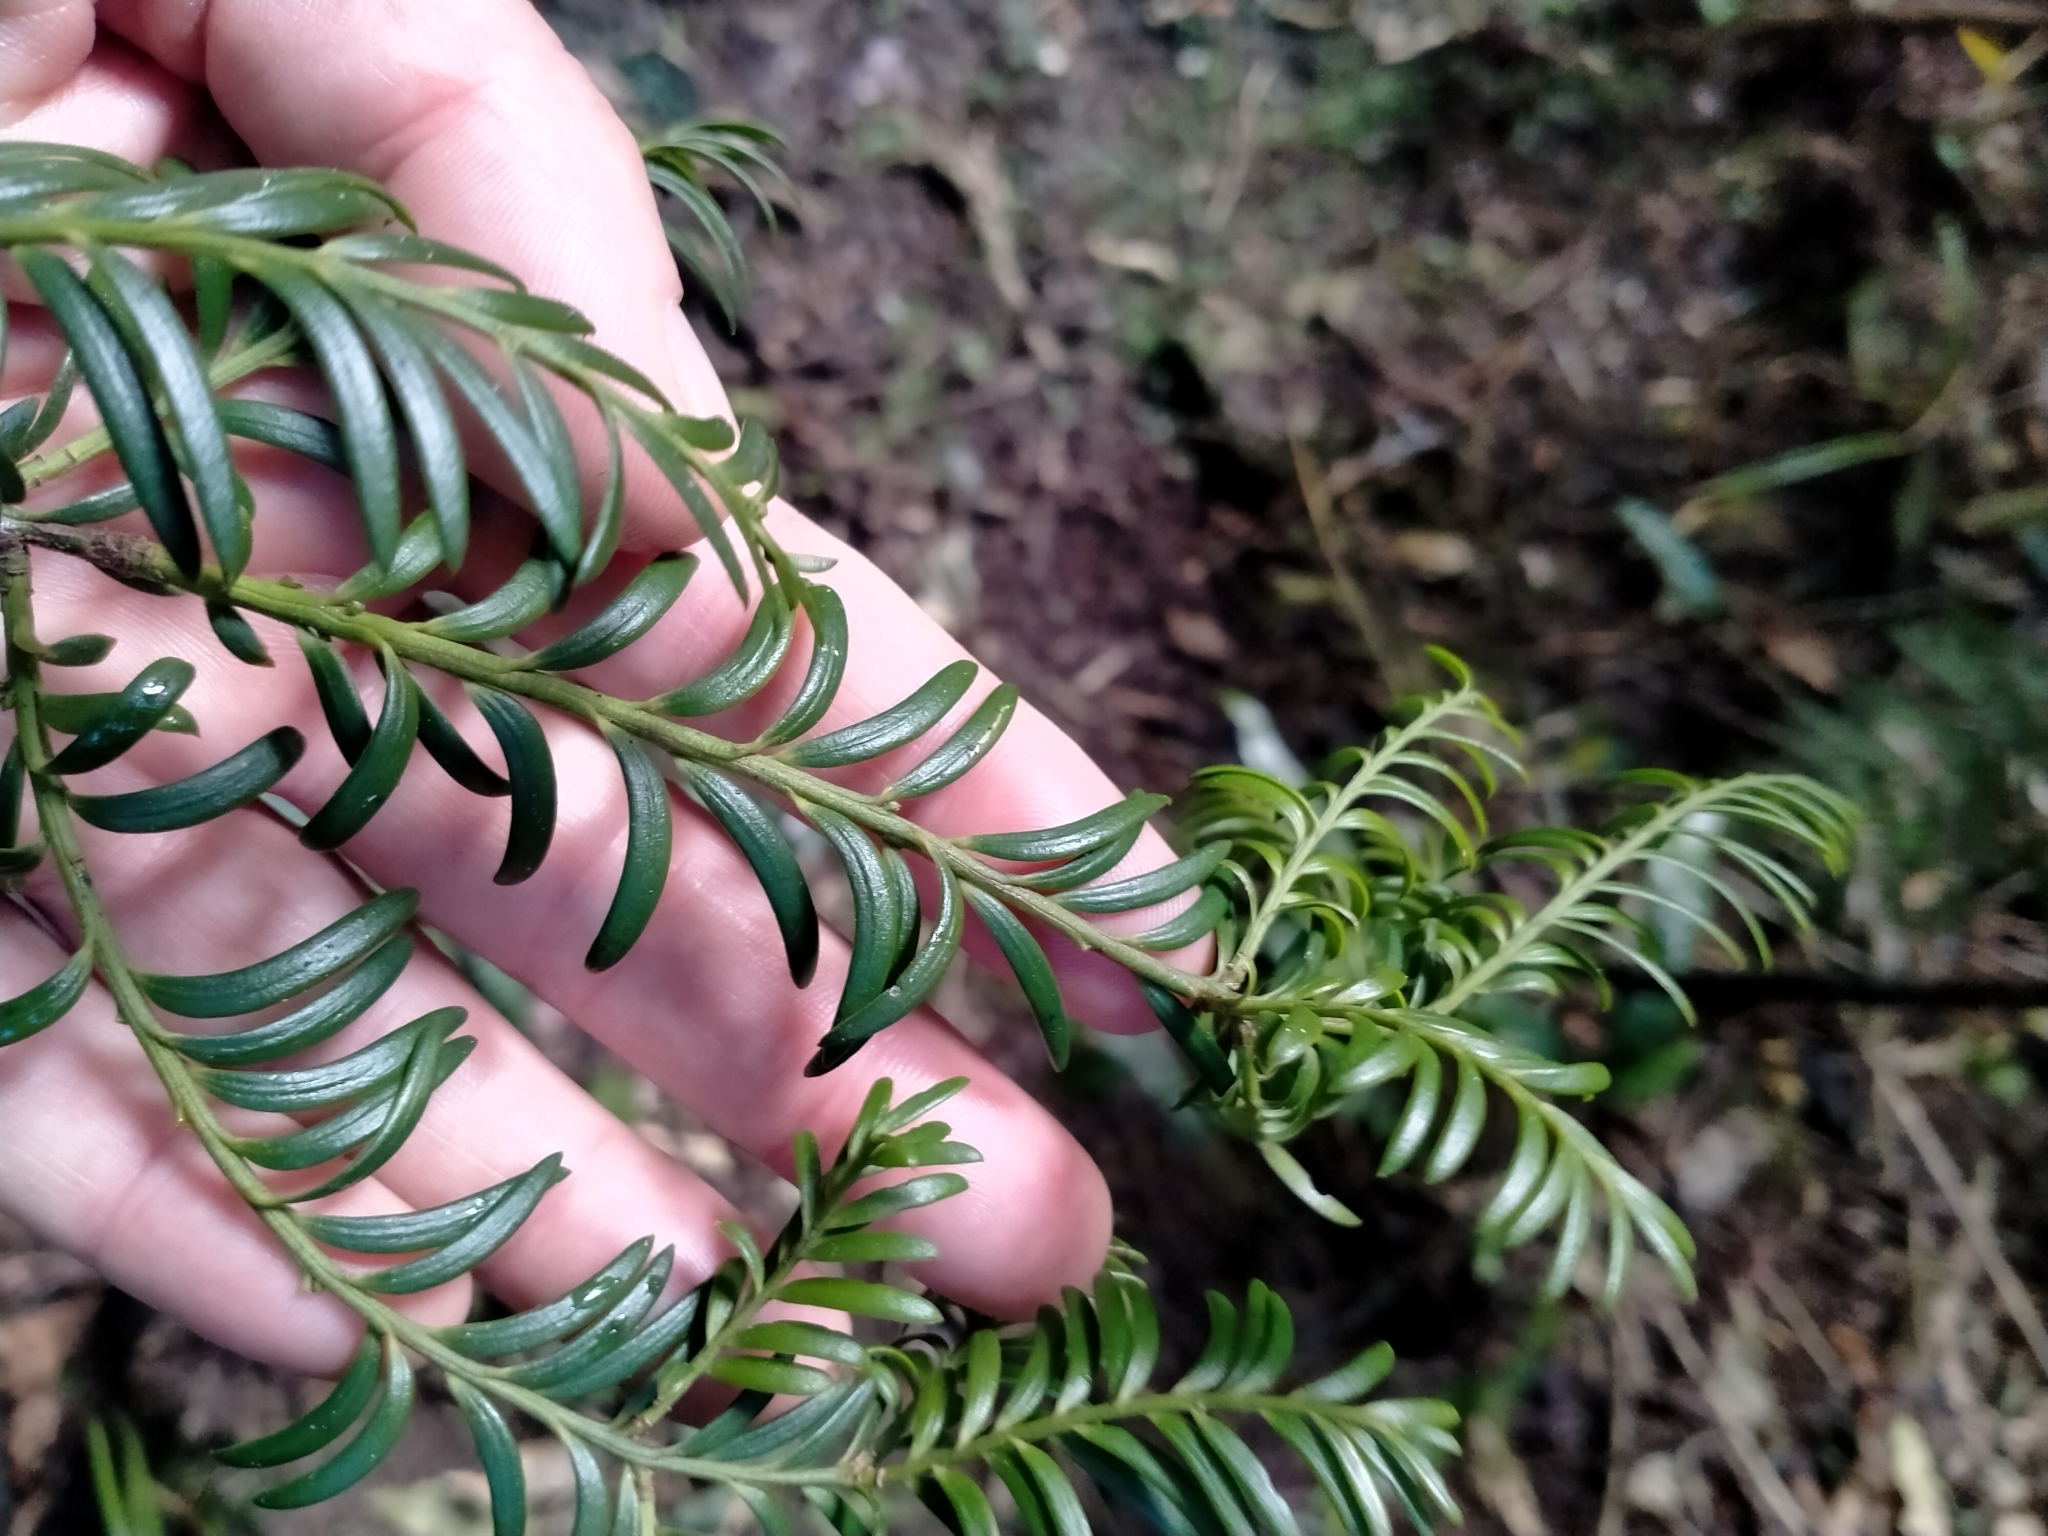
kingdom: Plantae
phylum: Tracheophyta
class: Pinopsida
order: Pinales
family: Podocarpaceae
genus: Prumnopitys
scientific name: Prumnopitys ferruginea
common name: Brown pine
